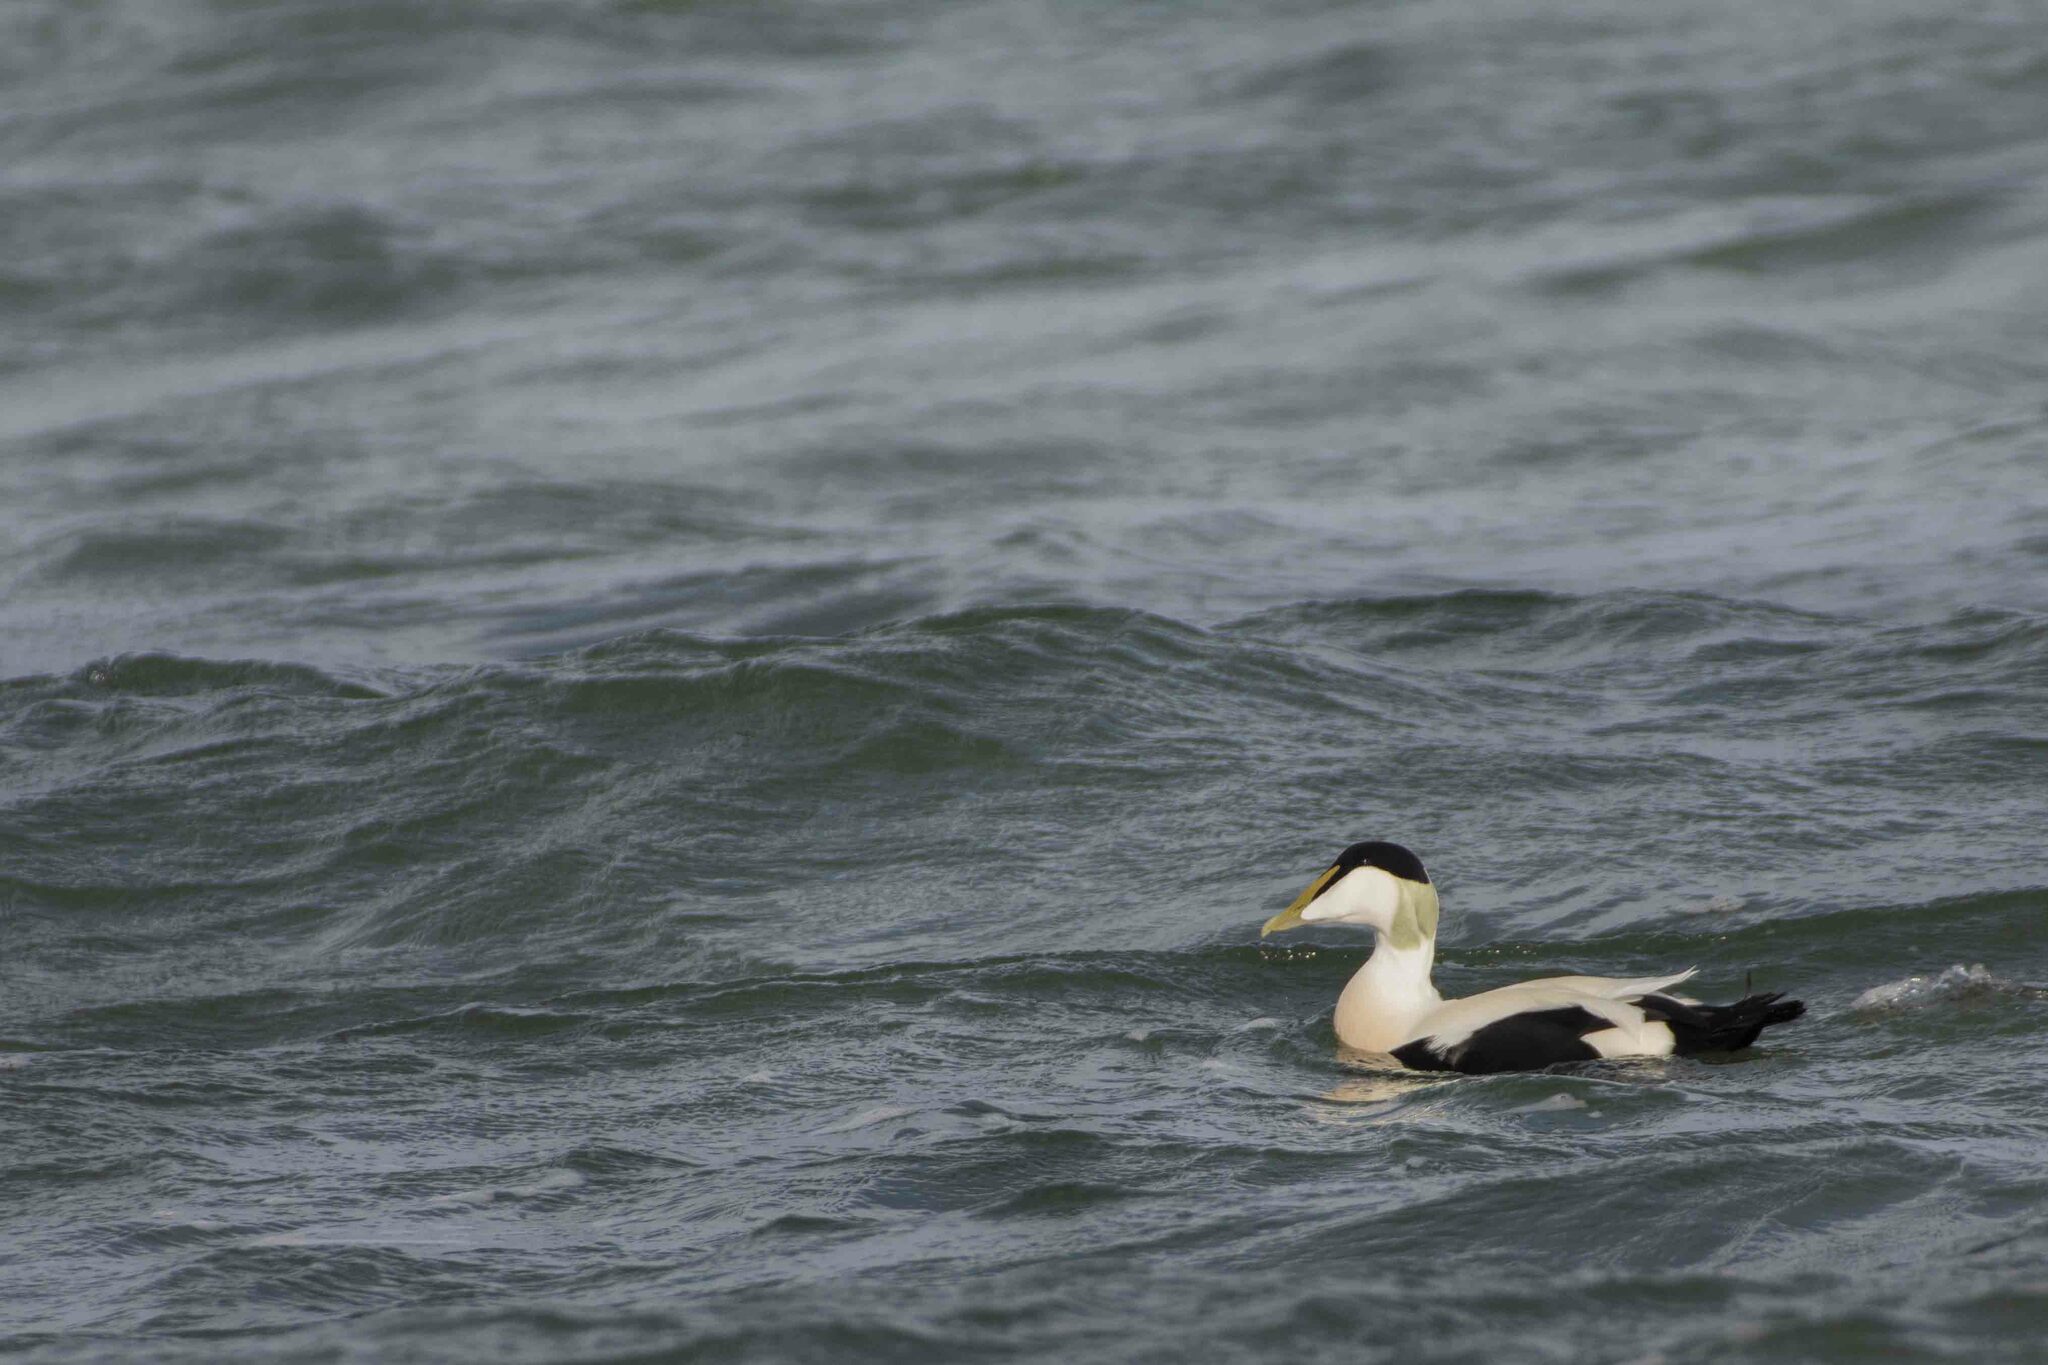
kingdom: Animalia
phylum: Chordata
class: Aves
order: Anseriformes
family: Anatidae
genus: Somateria
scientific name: Somateria mollissima
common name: Common eider
